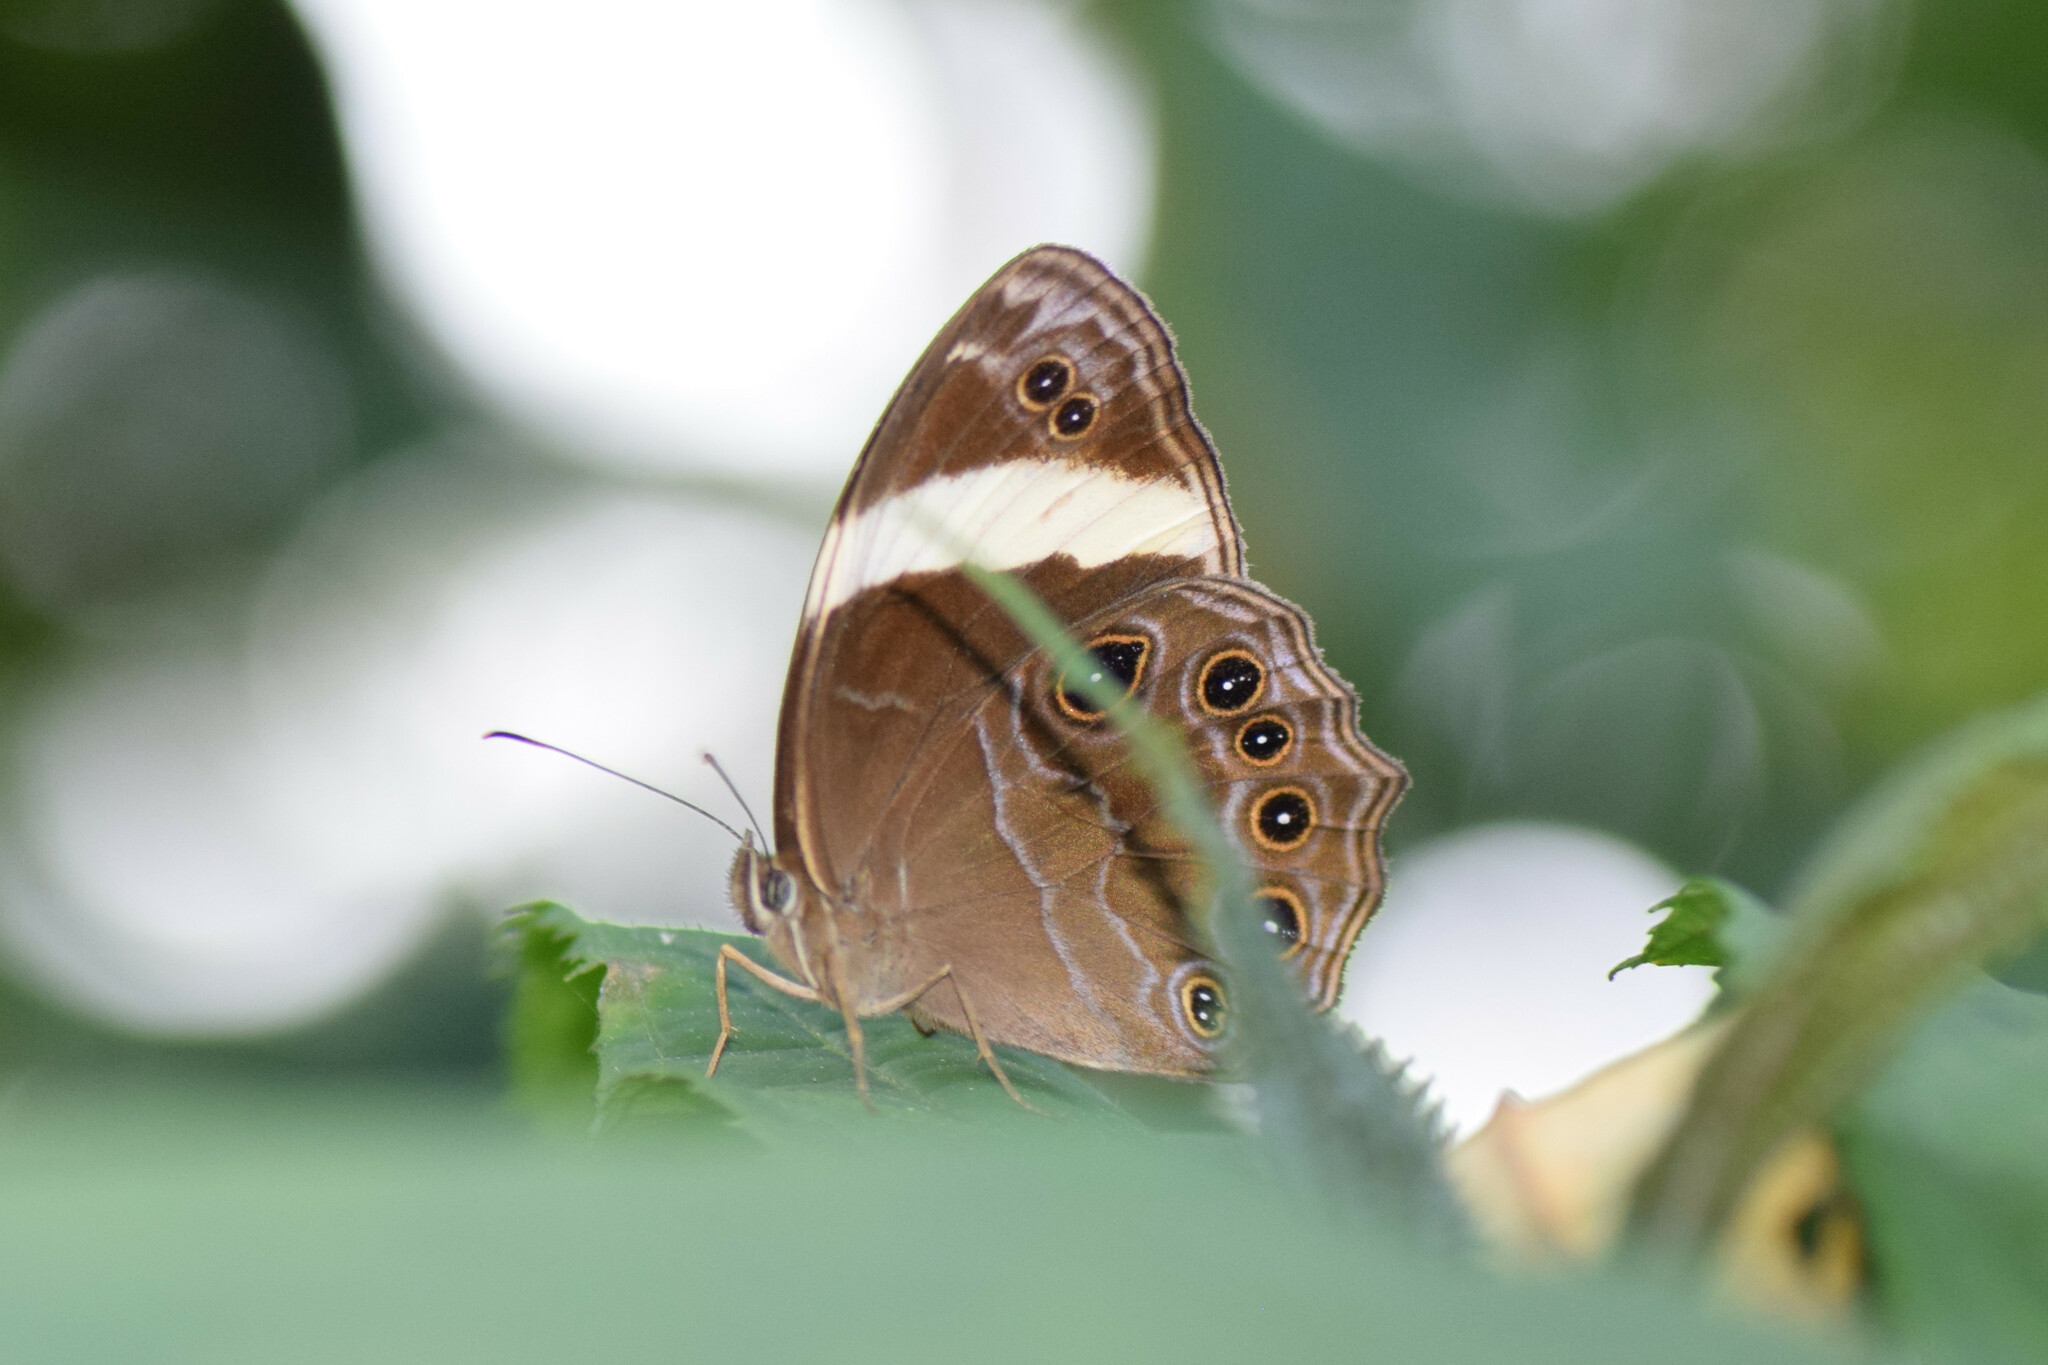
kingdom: Animalia
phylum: Arthropoda
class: Insecta
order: Lepidoptera
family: Nymphalidae
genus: Lethe
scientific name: Lethe verma
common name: Straight-banded treebrown
